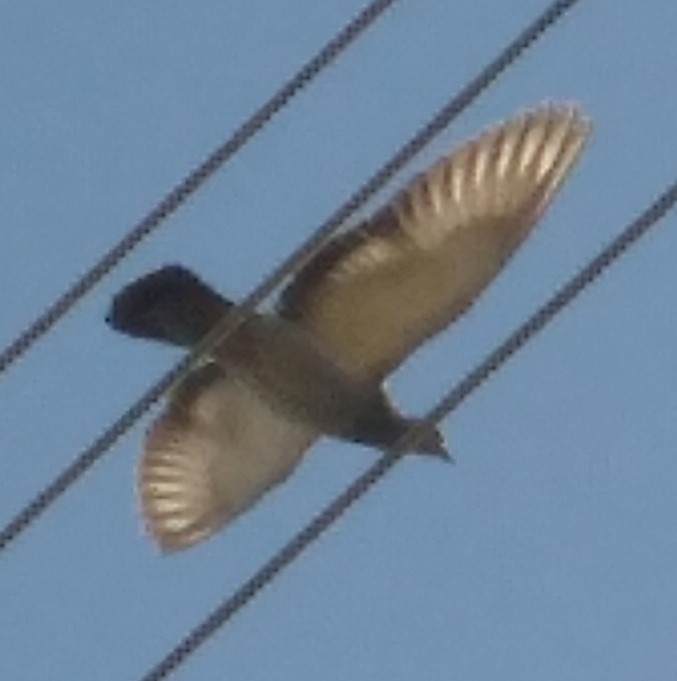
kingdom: Animalia
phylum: Chordata
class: Aves
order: Columbiformes
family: Columbidae
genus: Columba
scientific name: Columba livia
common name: Rock pigeon
